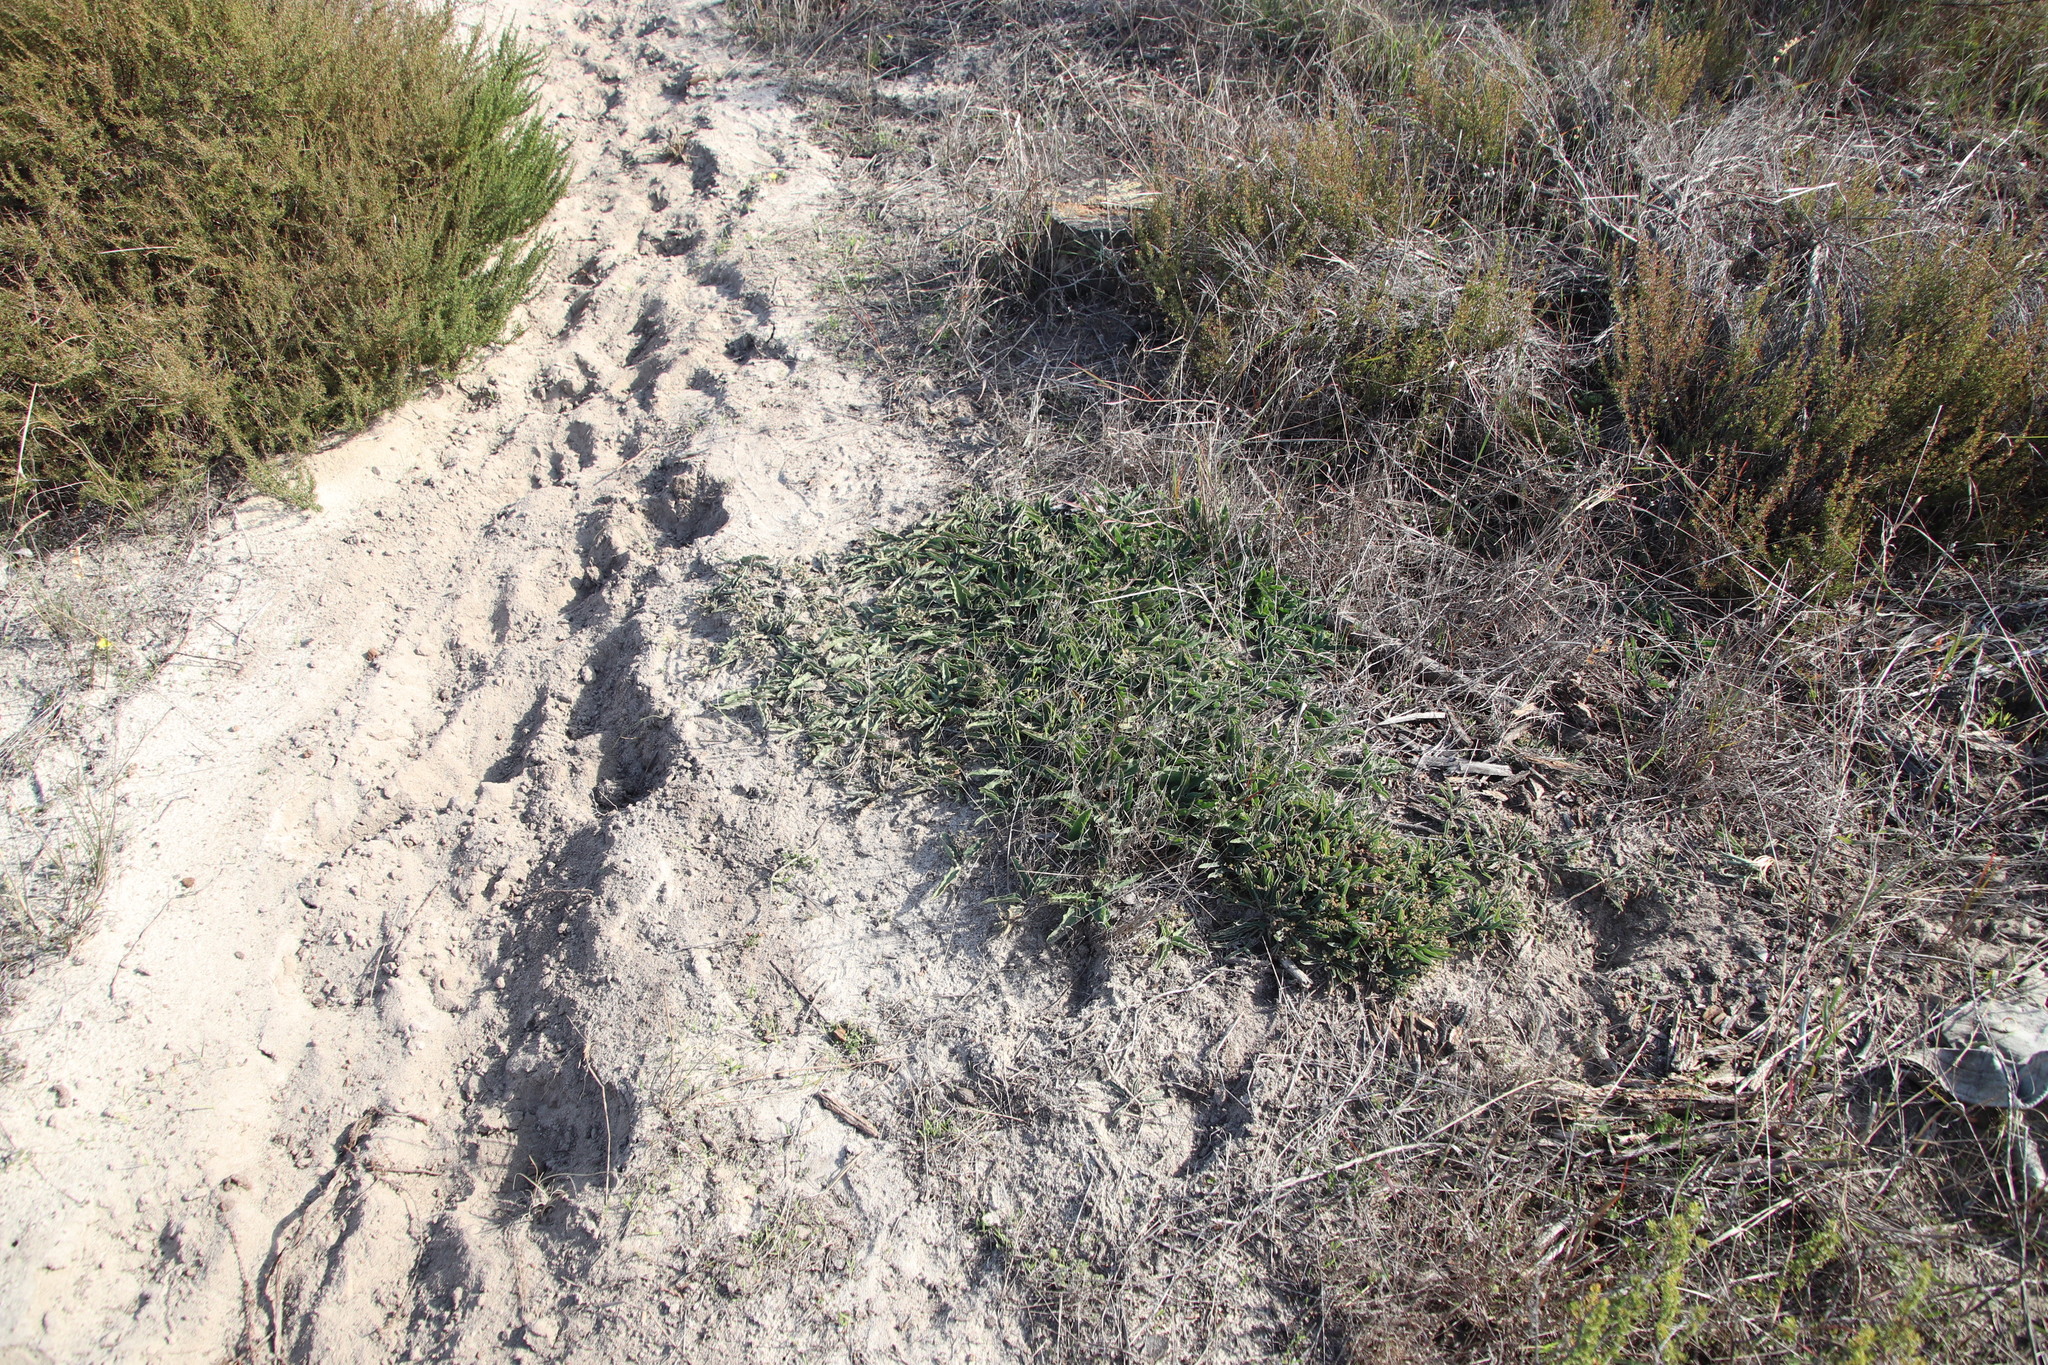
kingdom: Animalia
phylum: Chordata
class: Mammalia
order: Perissodactyla
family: Equidae
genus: Equus
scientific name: Equus caballus
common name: Horse
